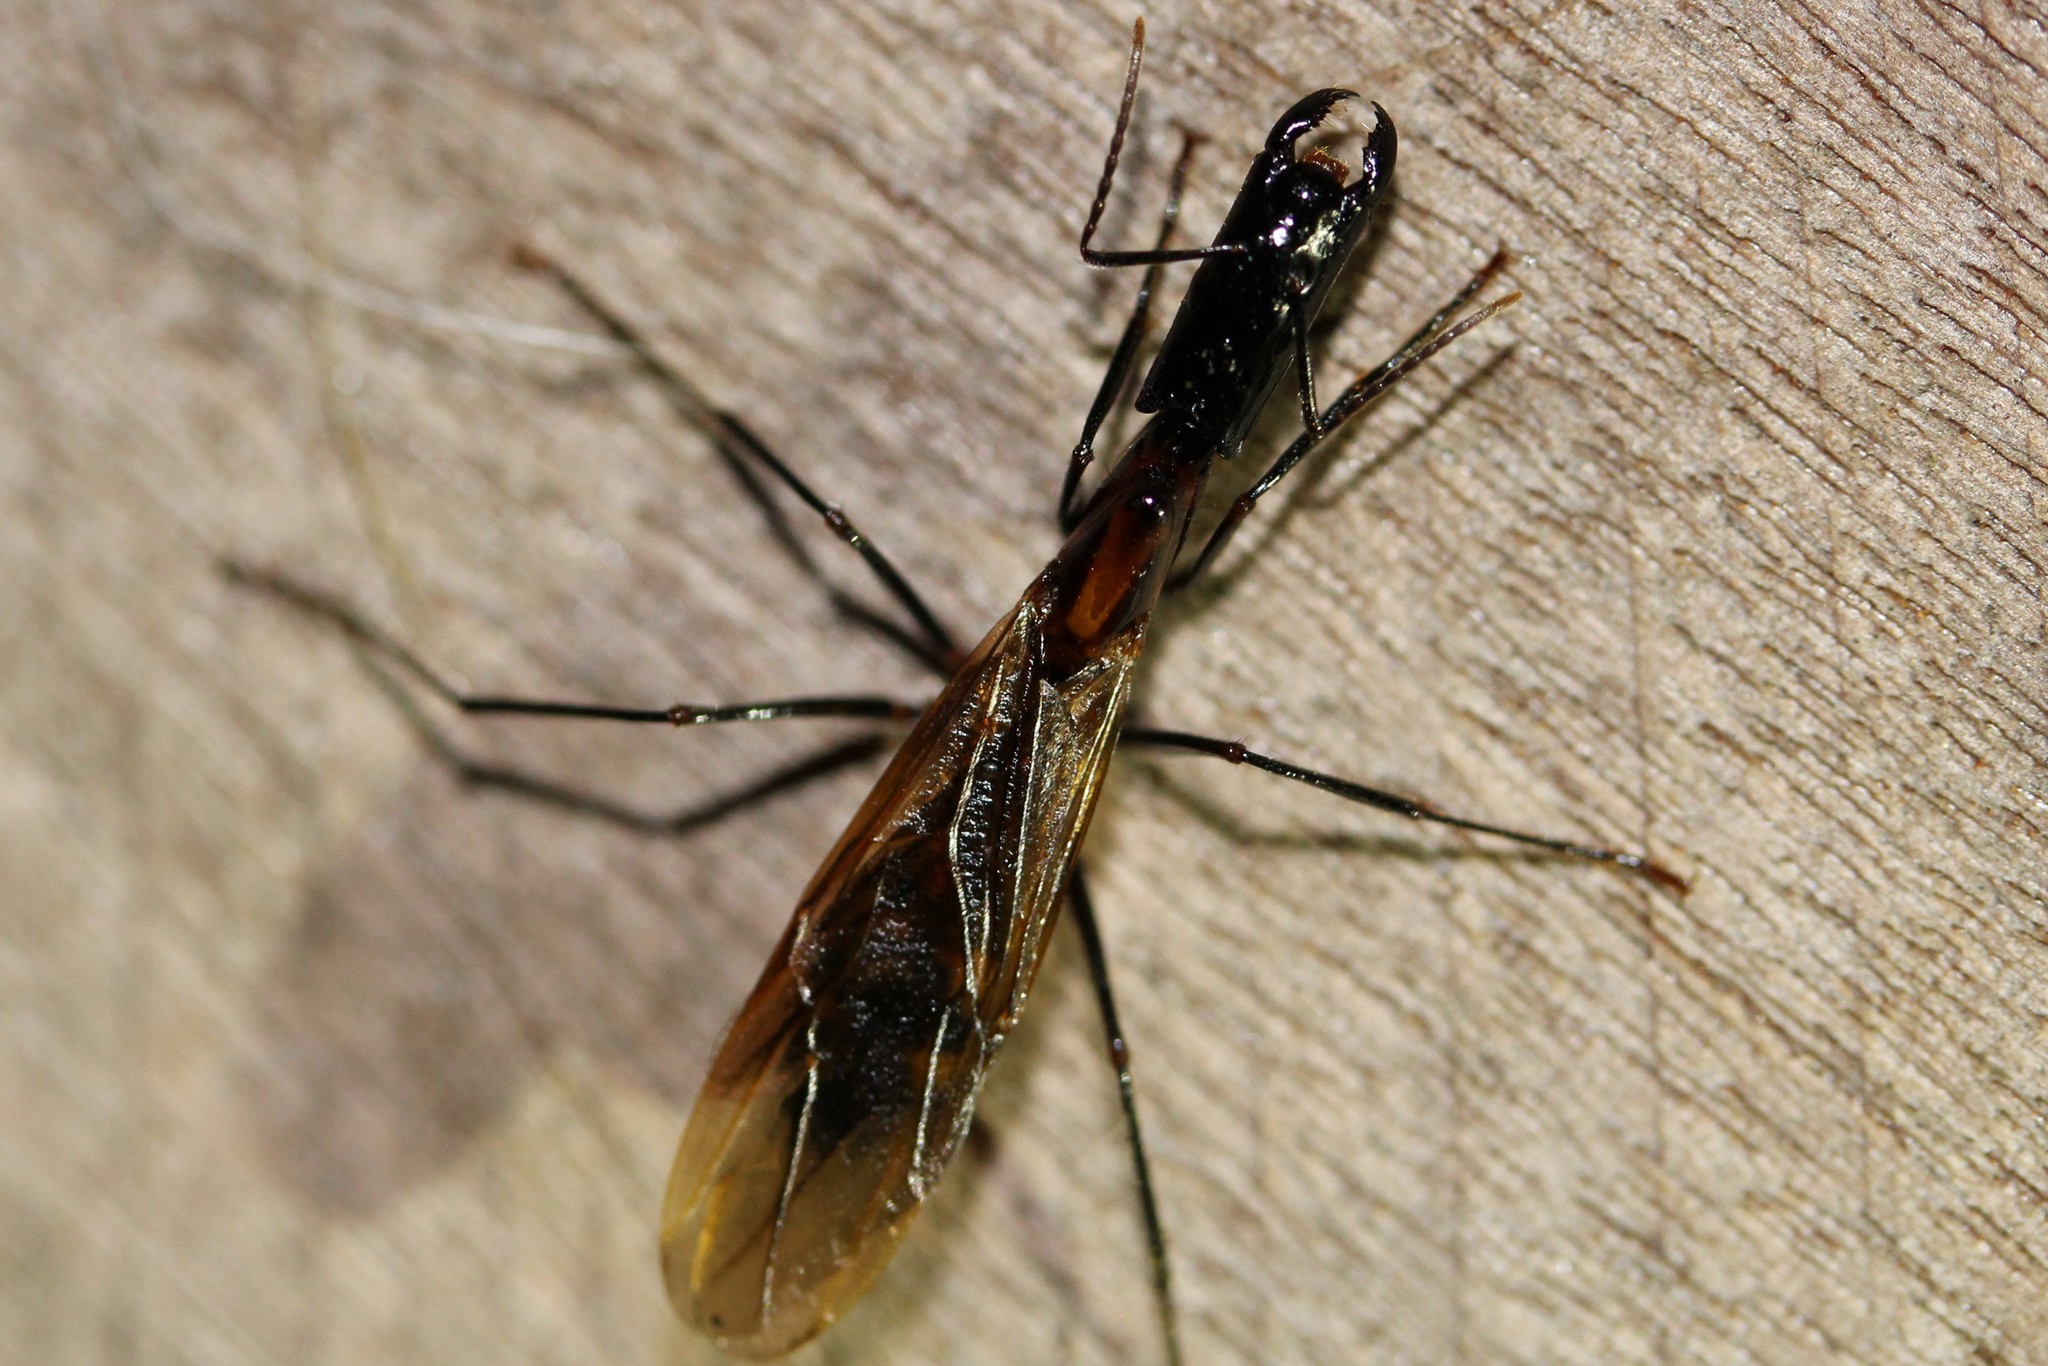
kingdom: Animalia
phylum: Arthropoda
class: Insecta
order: Hymenoptera
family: Formicidae
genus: Camponotus
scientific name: Camponotus mirabilis
